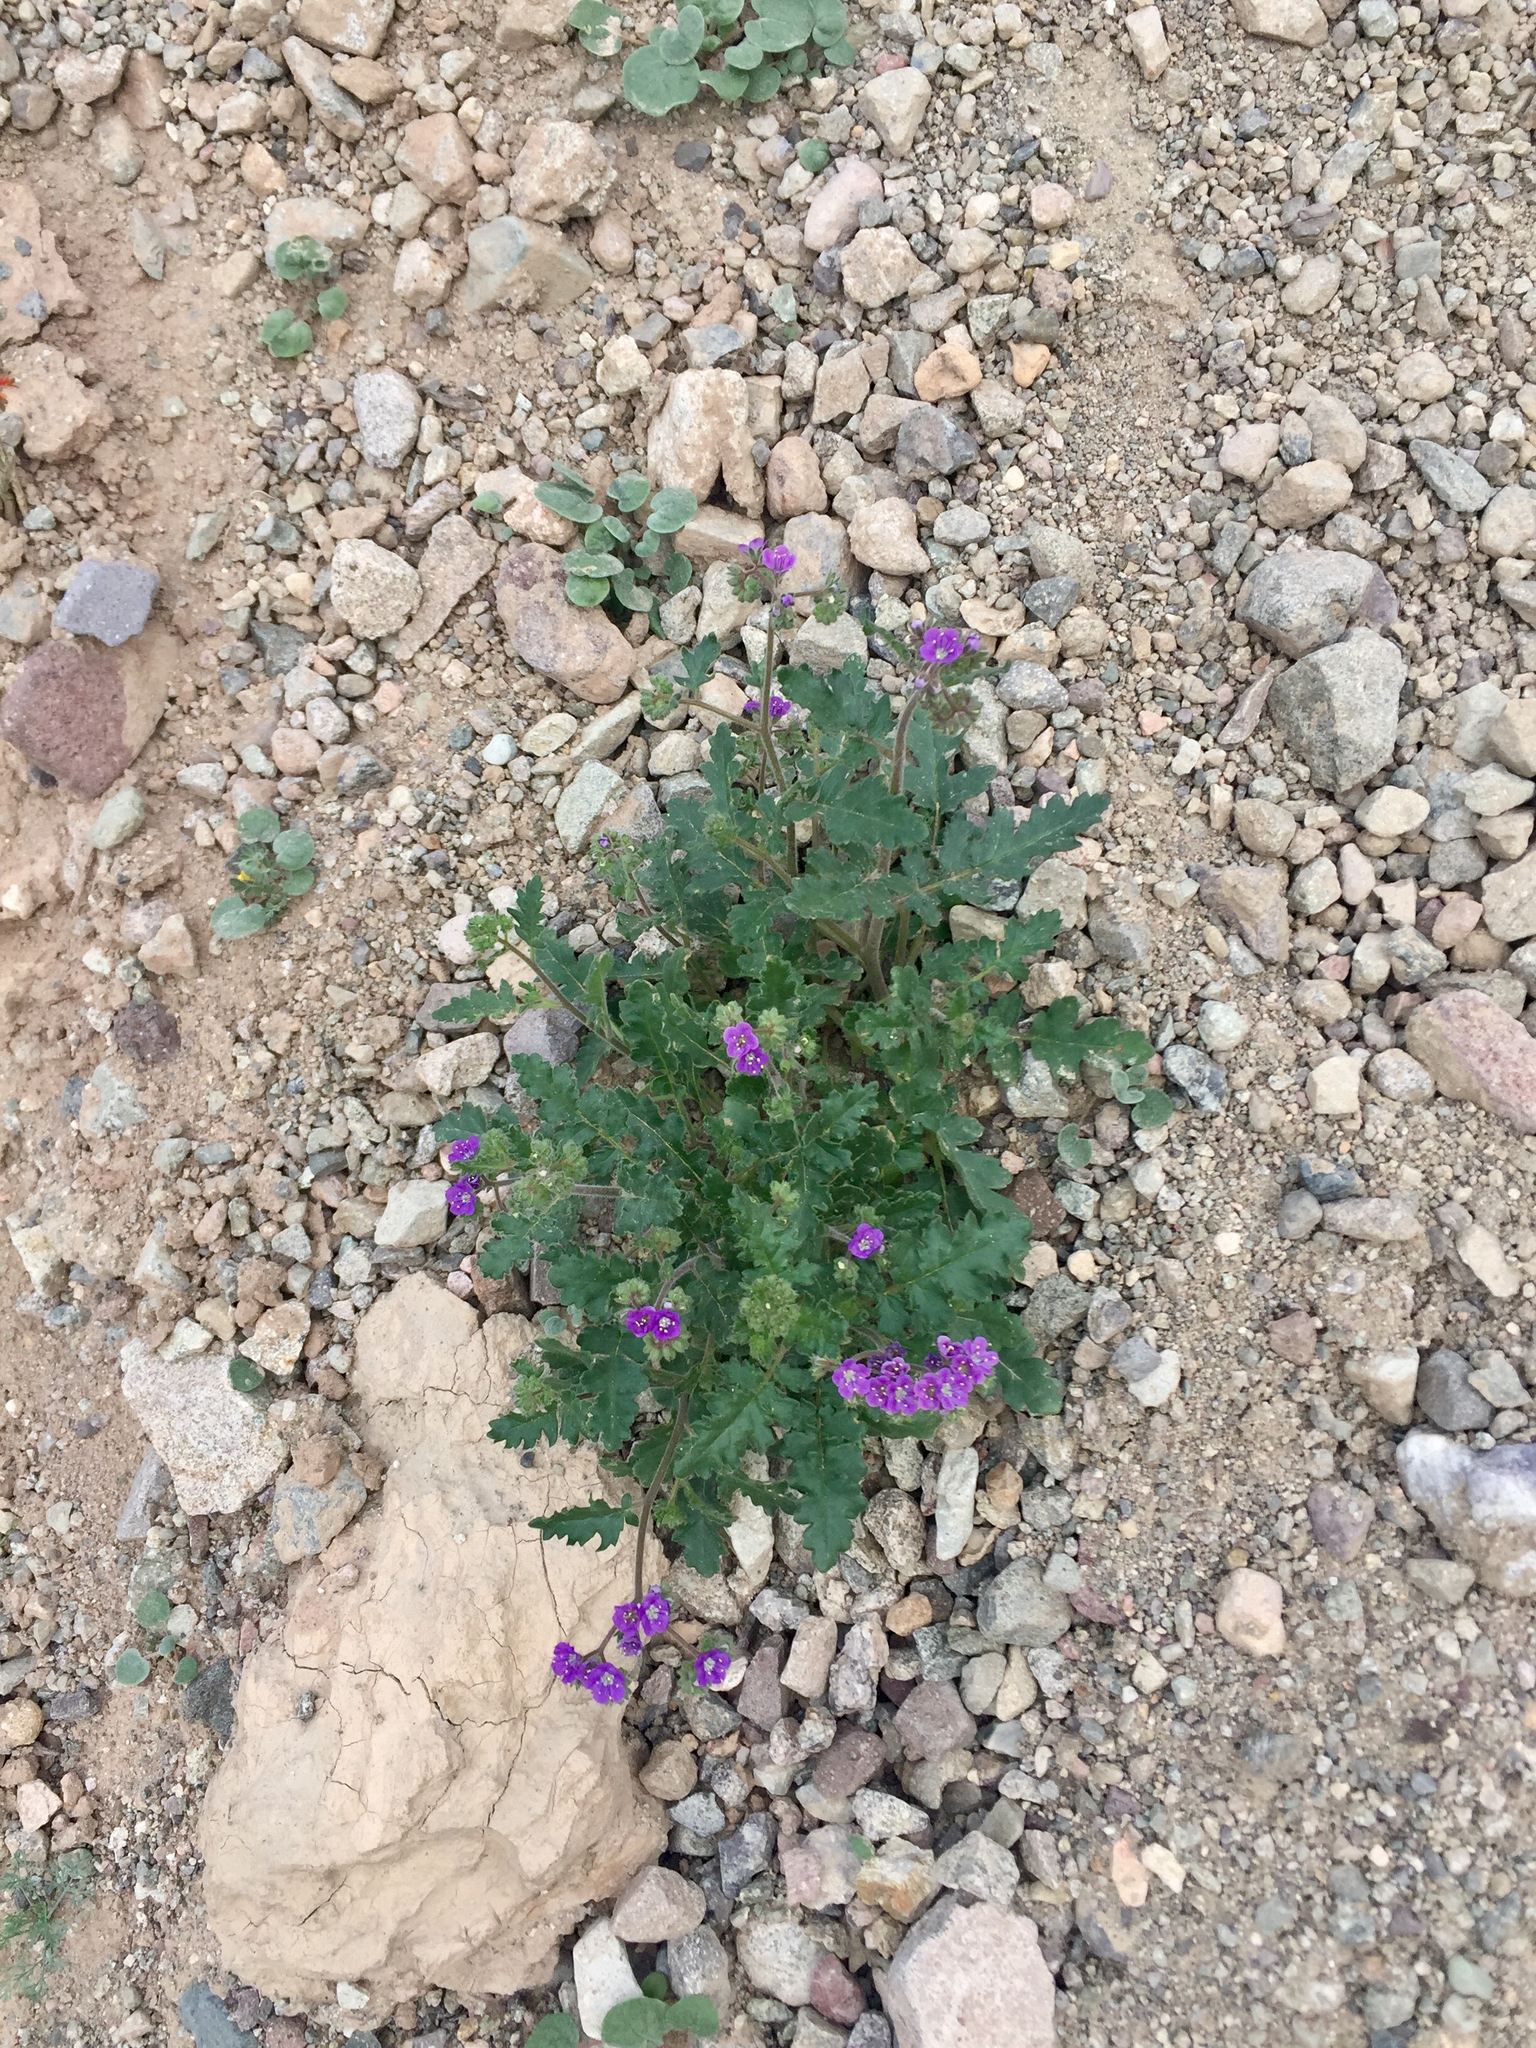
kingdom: Plantae
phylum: Tracheophyta
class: Magnoliopsida
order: Boraginales
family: Hydrophyllaceae
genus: Phacelia
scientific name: Phacelia crenulata
